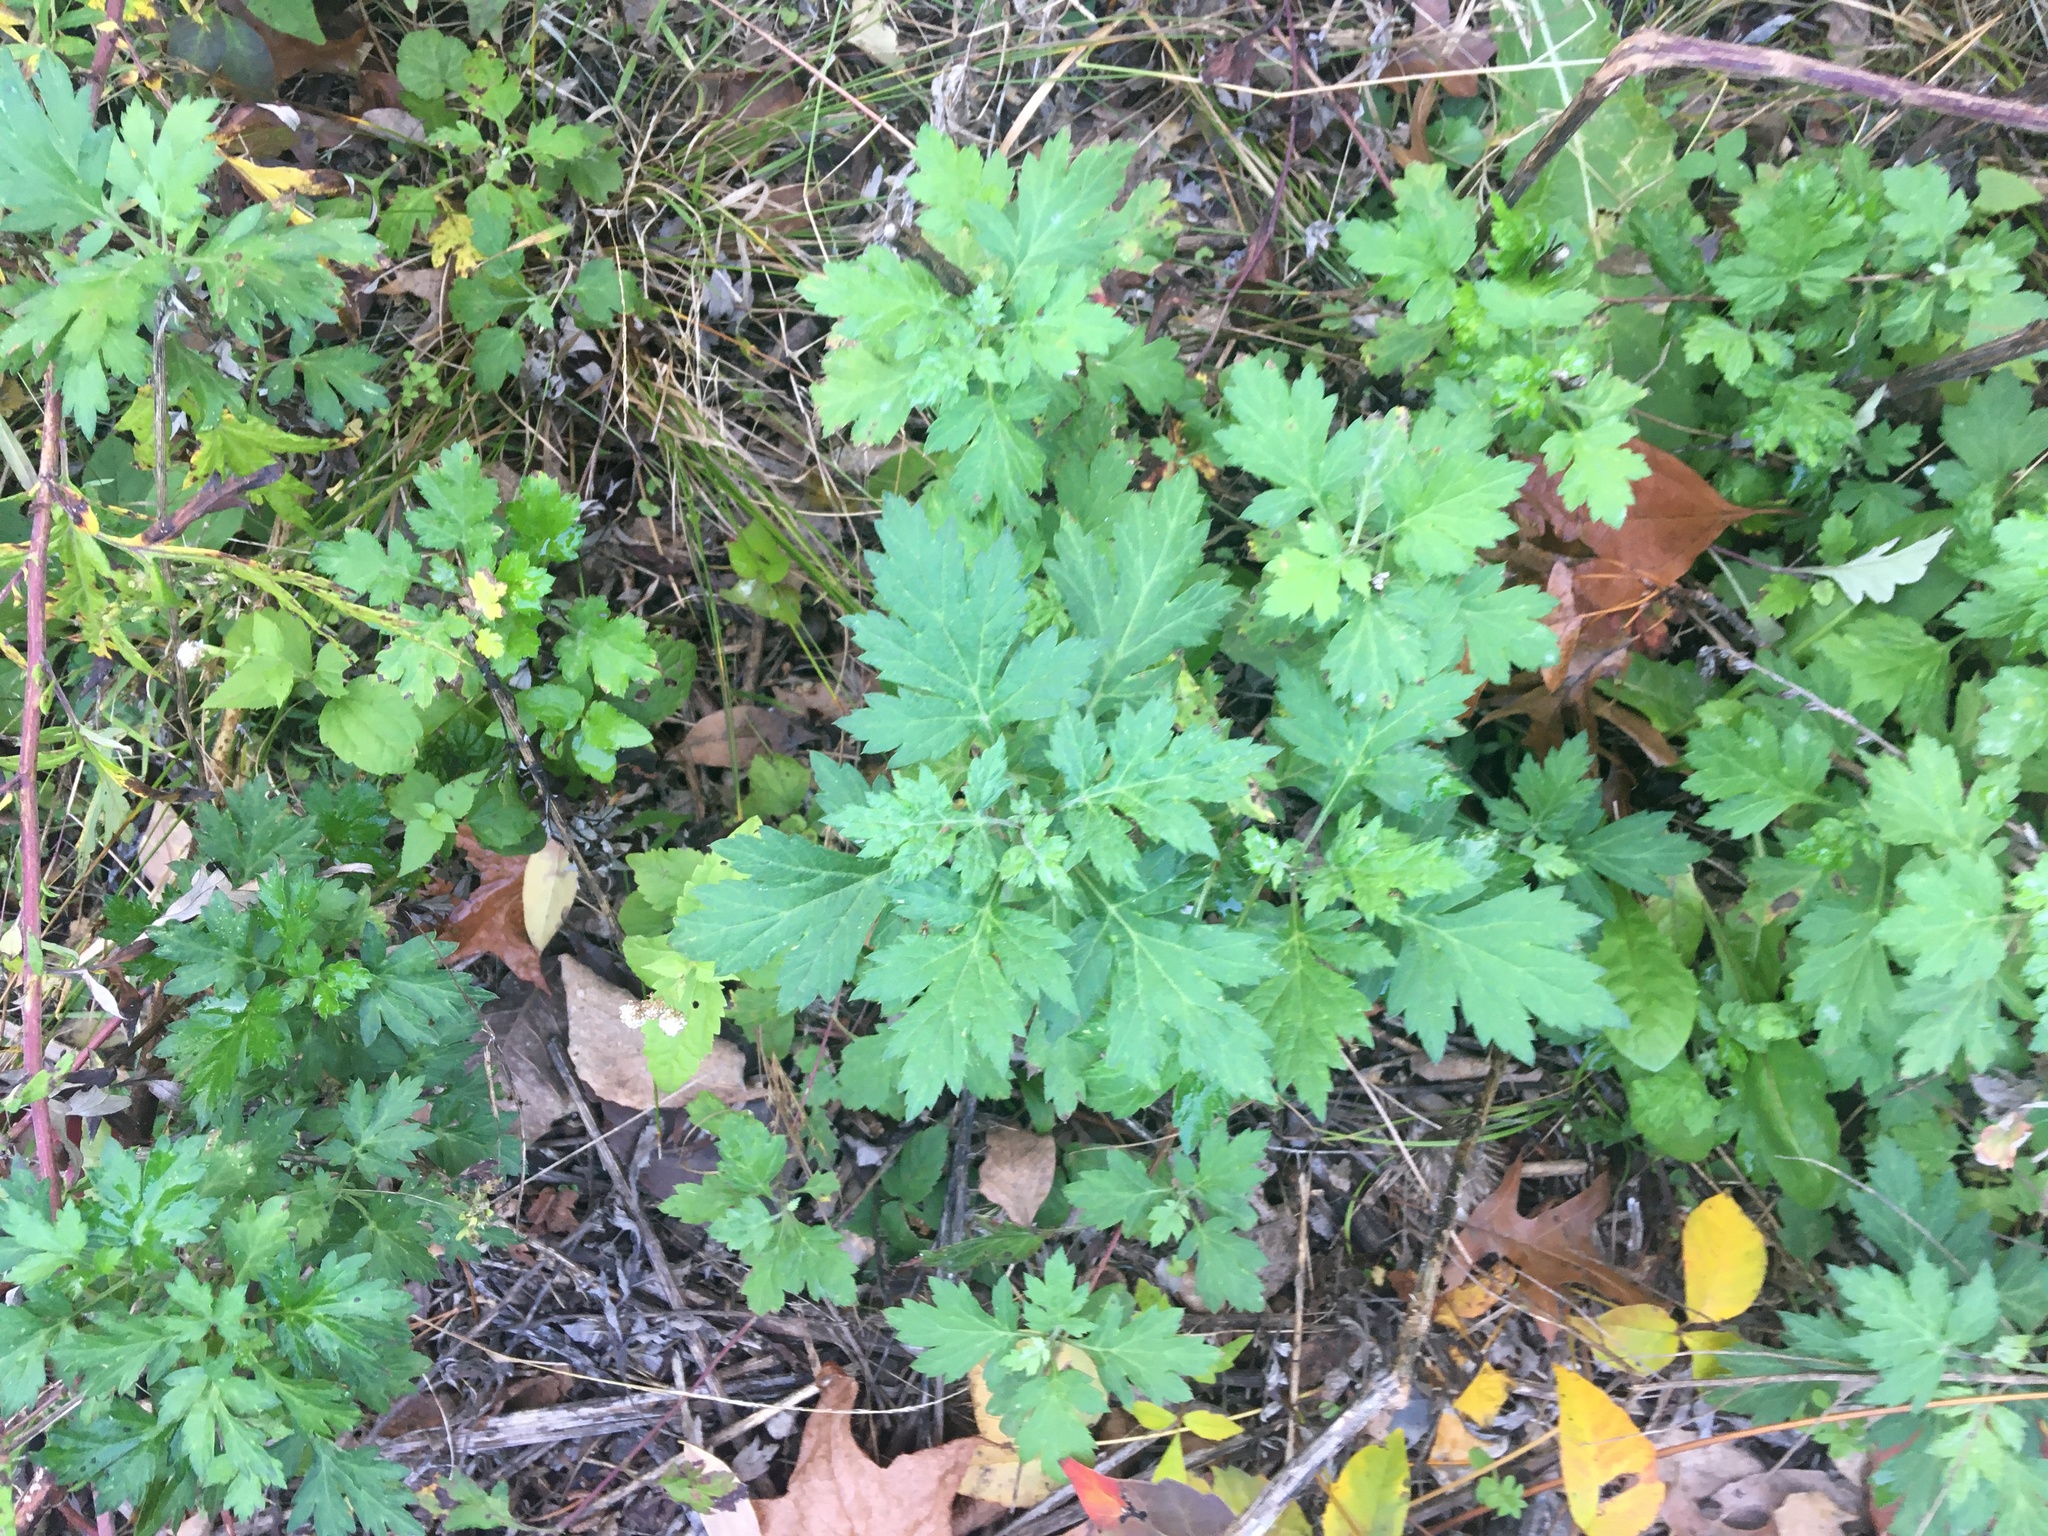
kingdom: Plantae
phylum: Tracheophyta
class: Magnoliopsida
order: Asterales
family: Asteraceae
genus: Artemisia
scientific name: Artemisia vulgaris
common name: Mugwort
